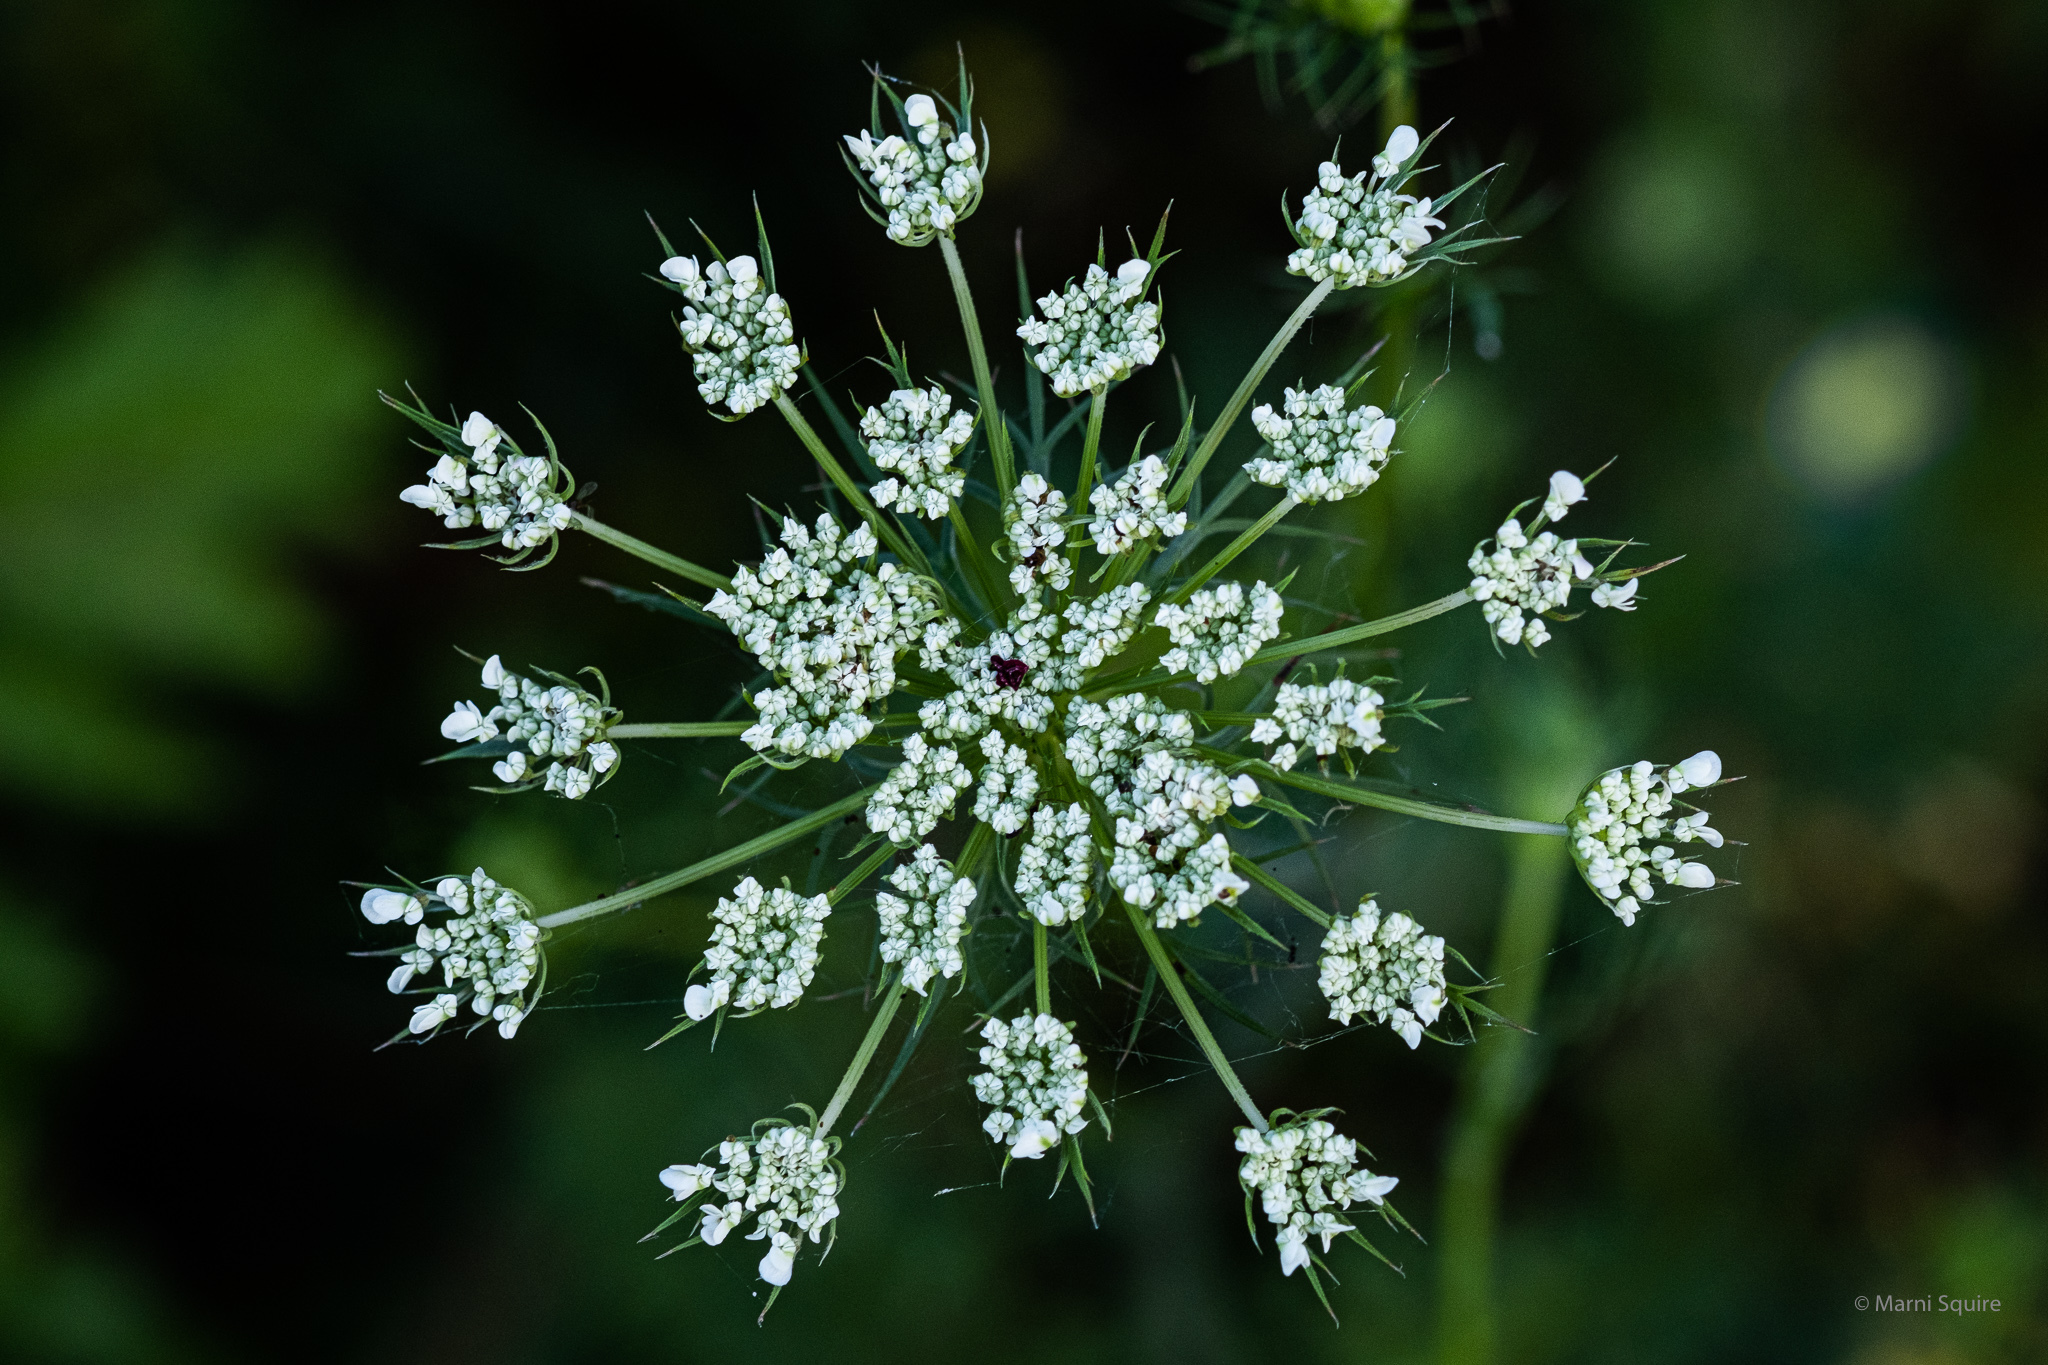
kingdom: Plantae
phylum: Tracheophyta
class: Magnoliopsida
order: Apiales
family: Apiaceae
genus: Daucus
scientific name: Daucus carota
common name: Wild carrot
